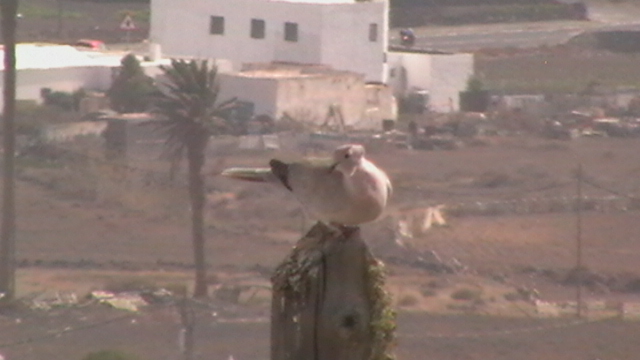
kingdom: Animalia
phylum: Chordata
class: Aves
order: Columbiformes
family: Columbidae
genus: Streptopelia
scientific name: Streptopelia decaocto
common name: Eurasian collared dove
